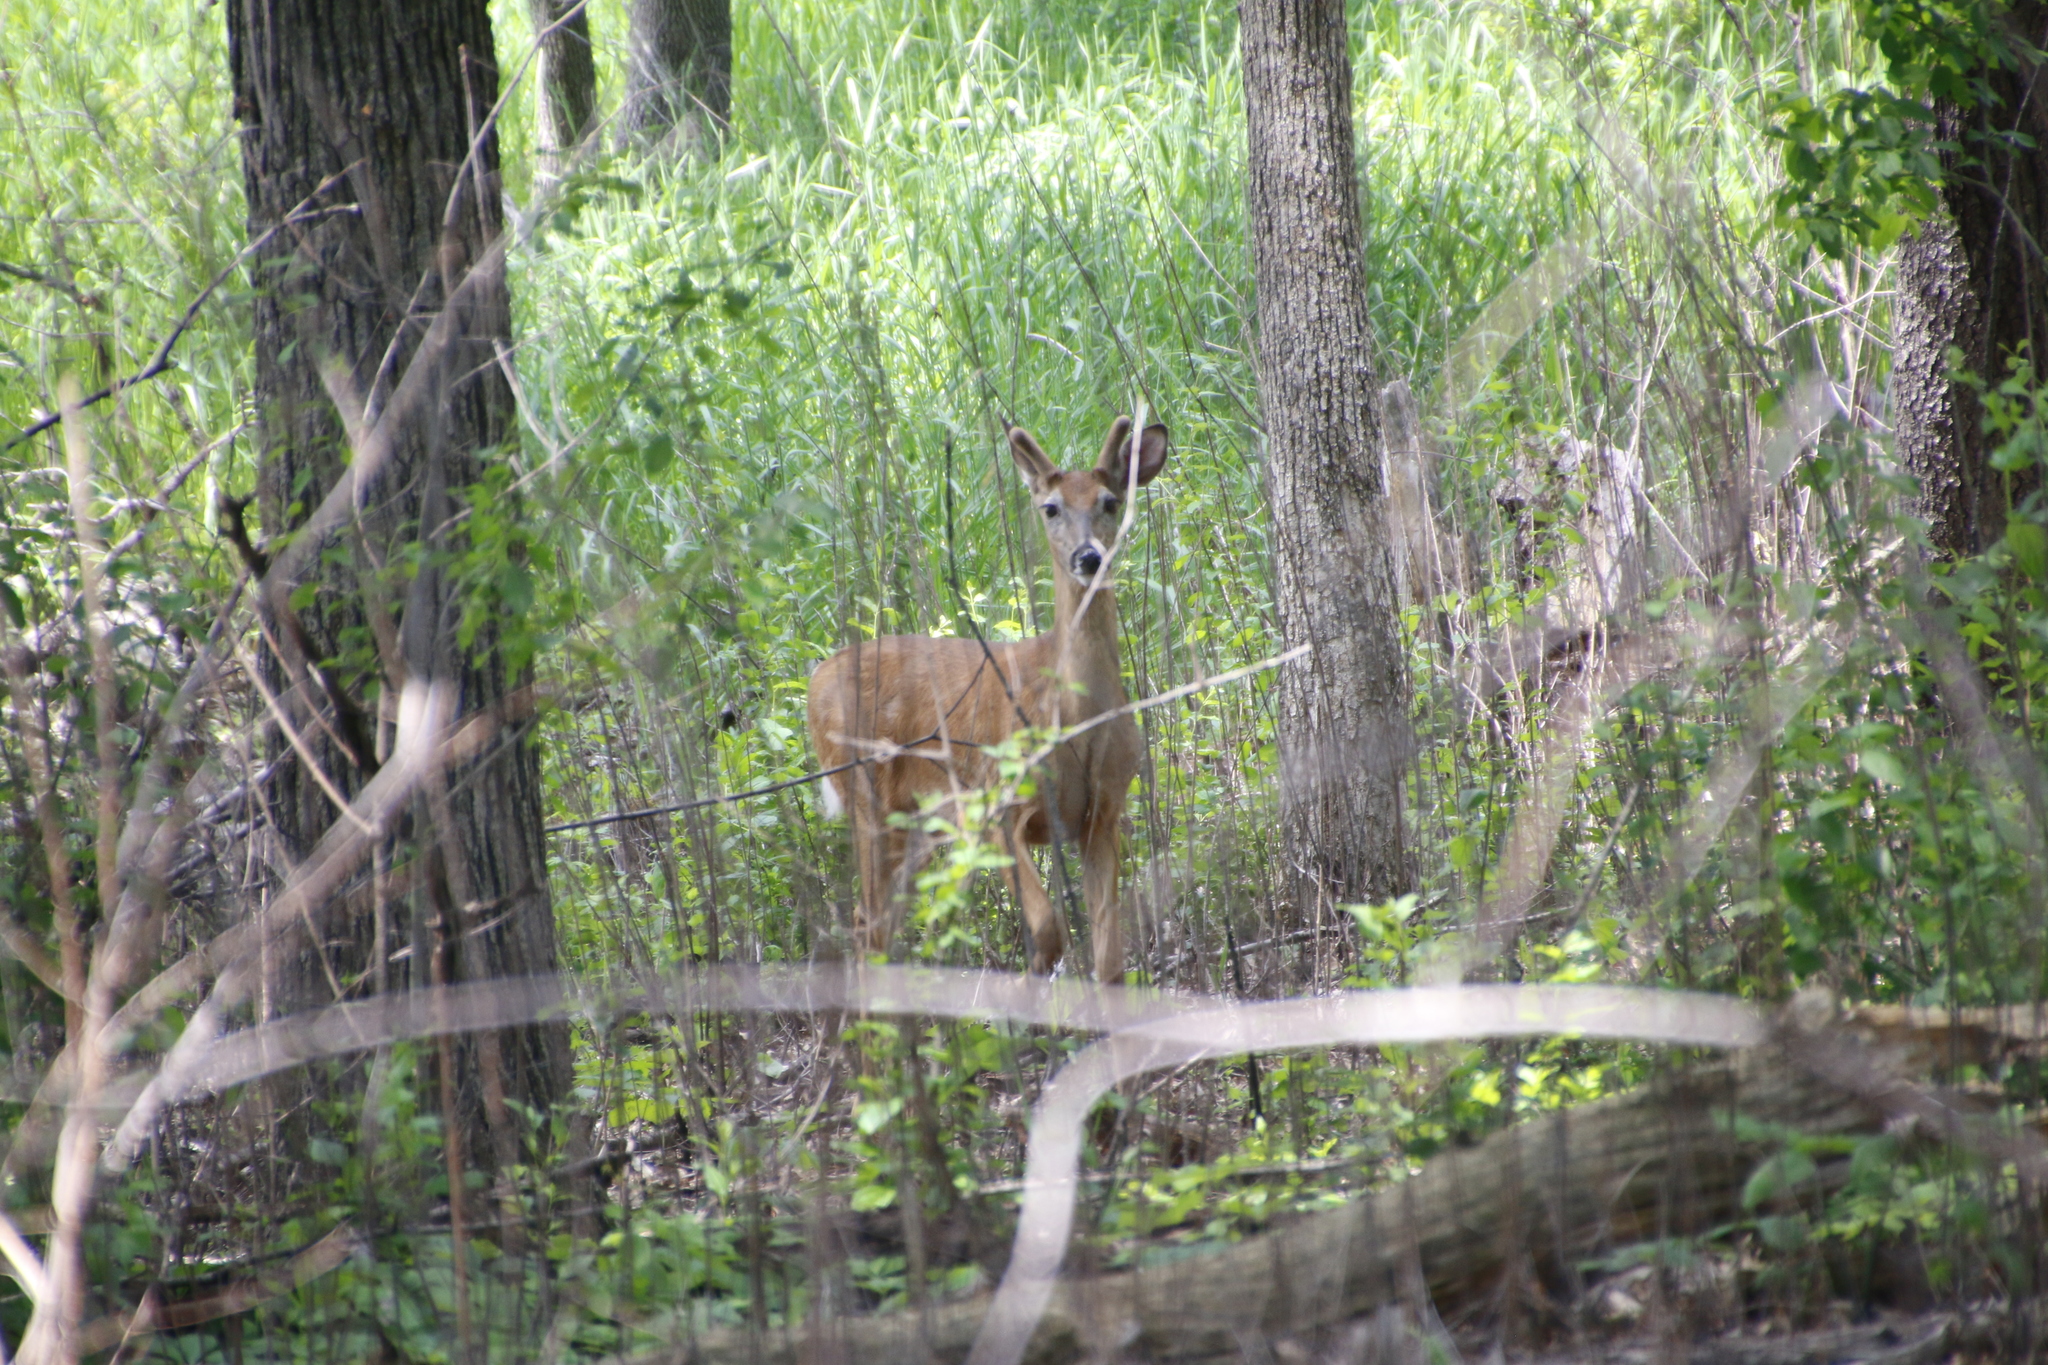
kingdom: Animalia
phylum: Chordata
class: Mammalia
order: Artiodactyla
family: Cervidae
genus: Odocoileus
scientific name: Odocoileus virginianus
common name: White-tailed deer
